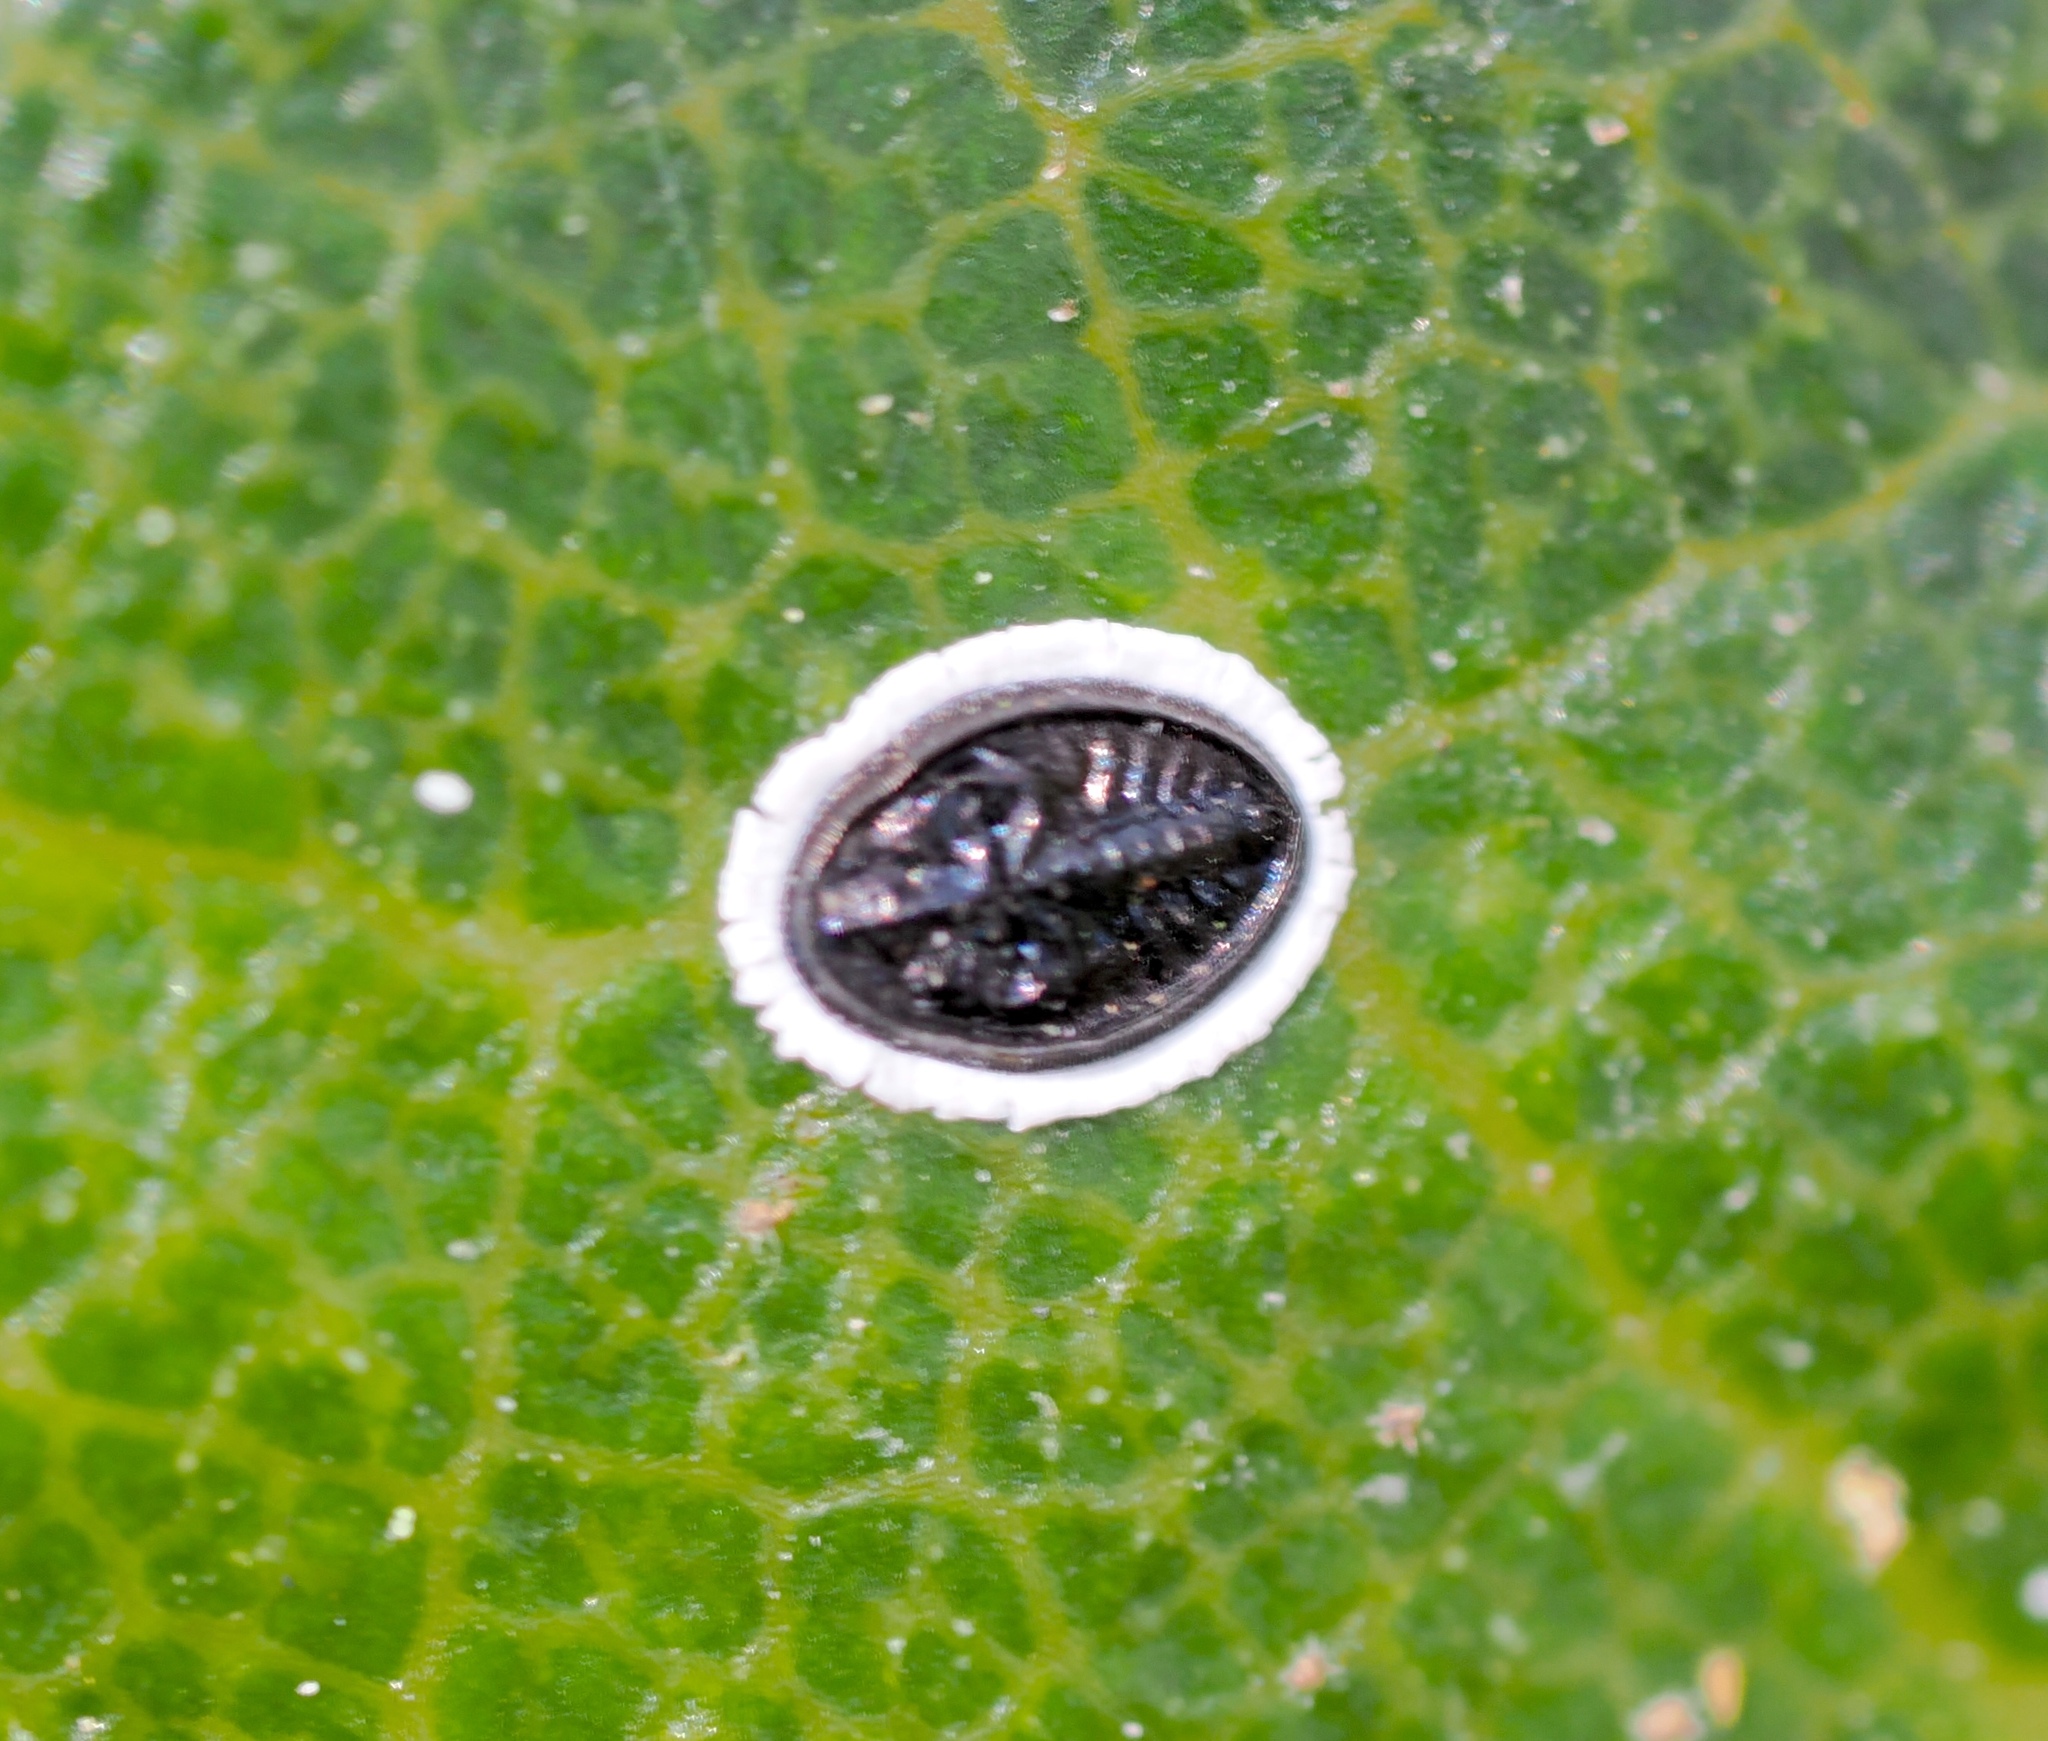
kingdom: Animalia
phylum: Arthropoda
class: Insecta
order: Hemiptera
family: Aleyrodidae
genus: Tetraleurodes
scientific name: Tetraleurodes perileuca
